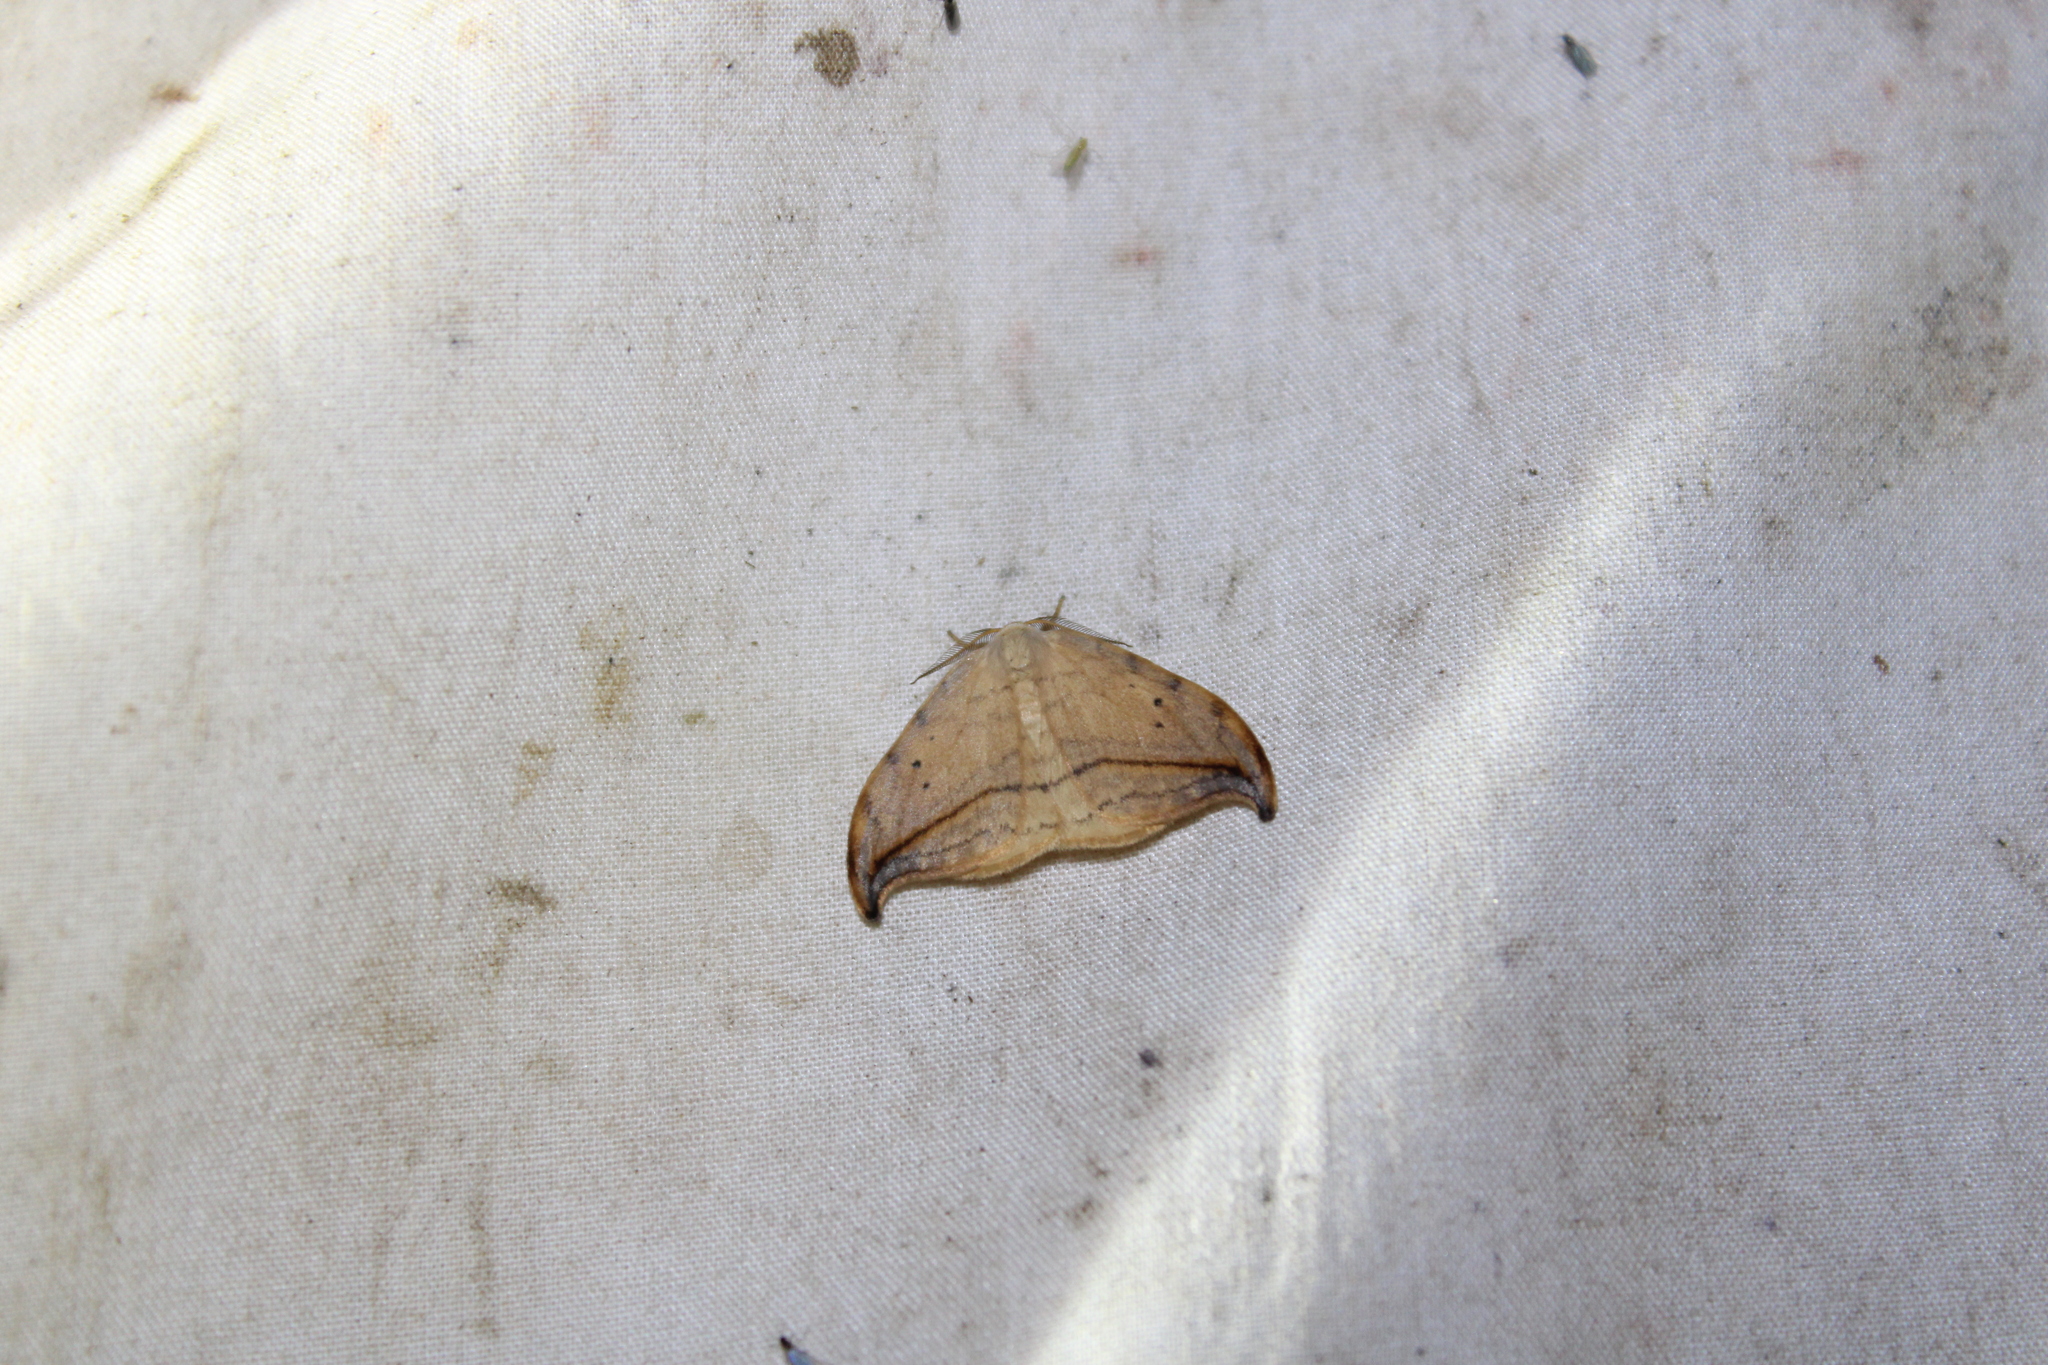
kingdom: Animalia
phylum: Arthropoda
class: Insecta
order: Lepidoptera
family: Drepanidae
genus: Drepana
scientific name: Drepana arcuata
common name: Arched hooktip moth
